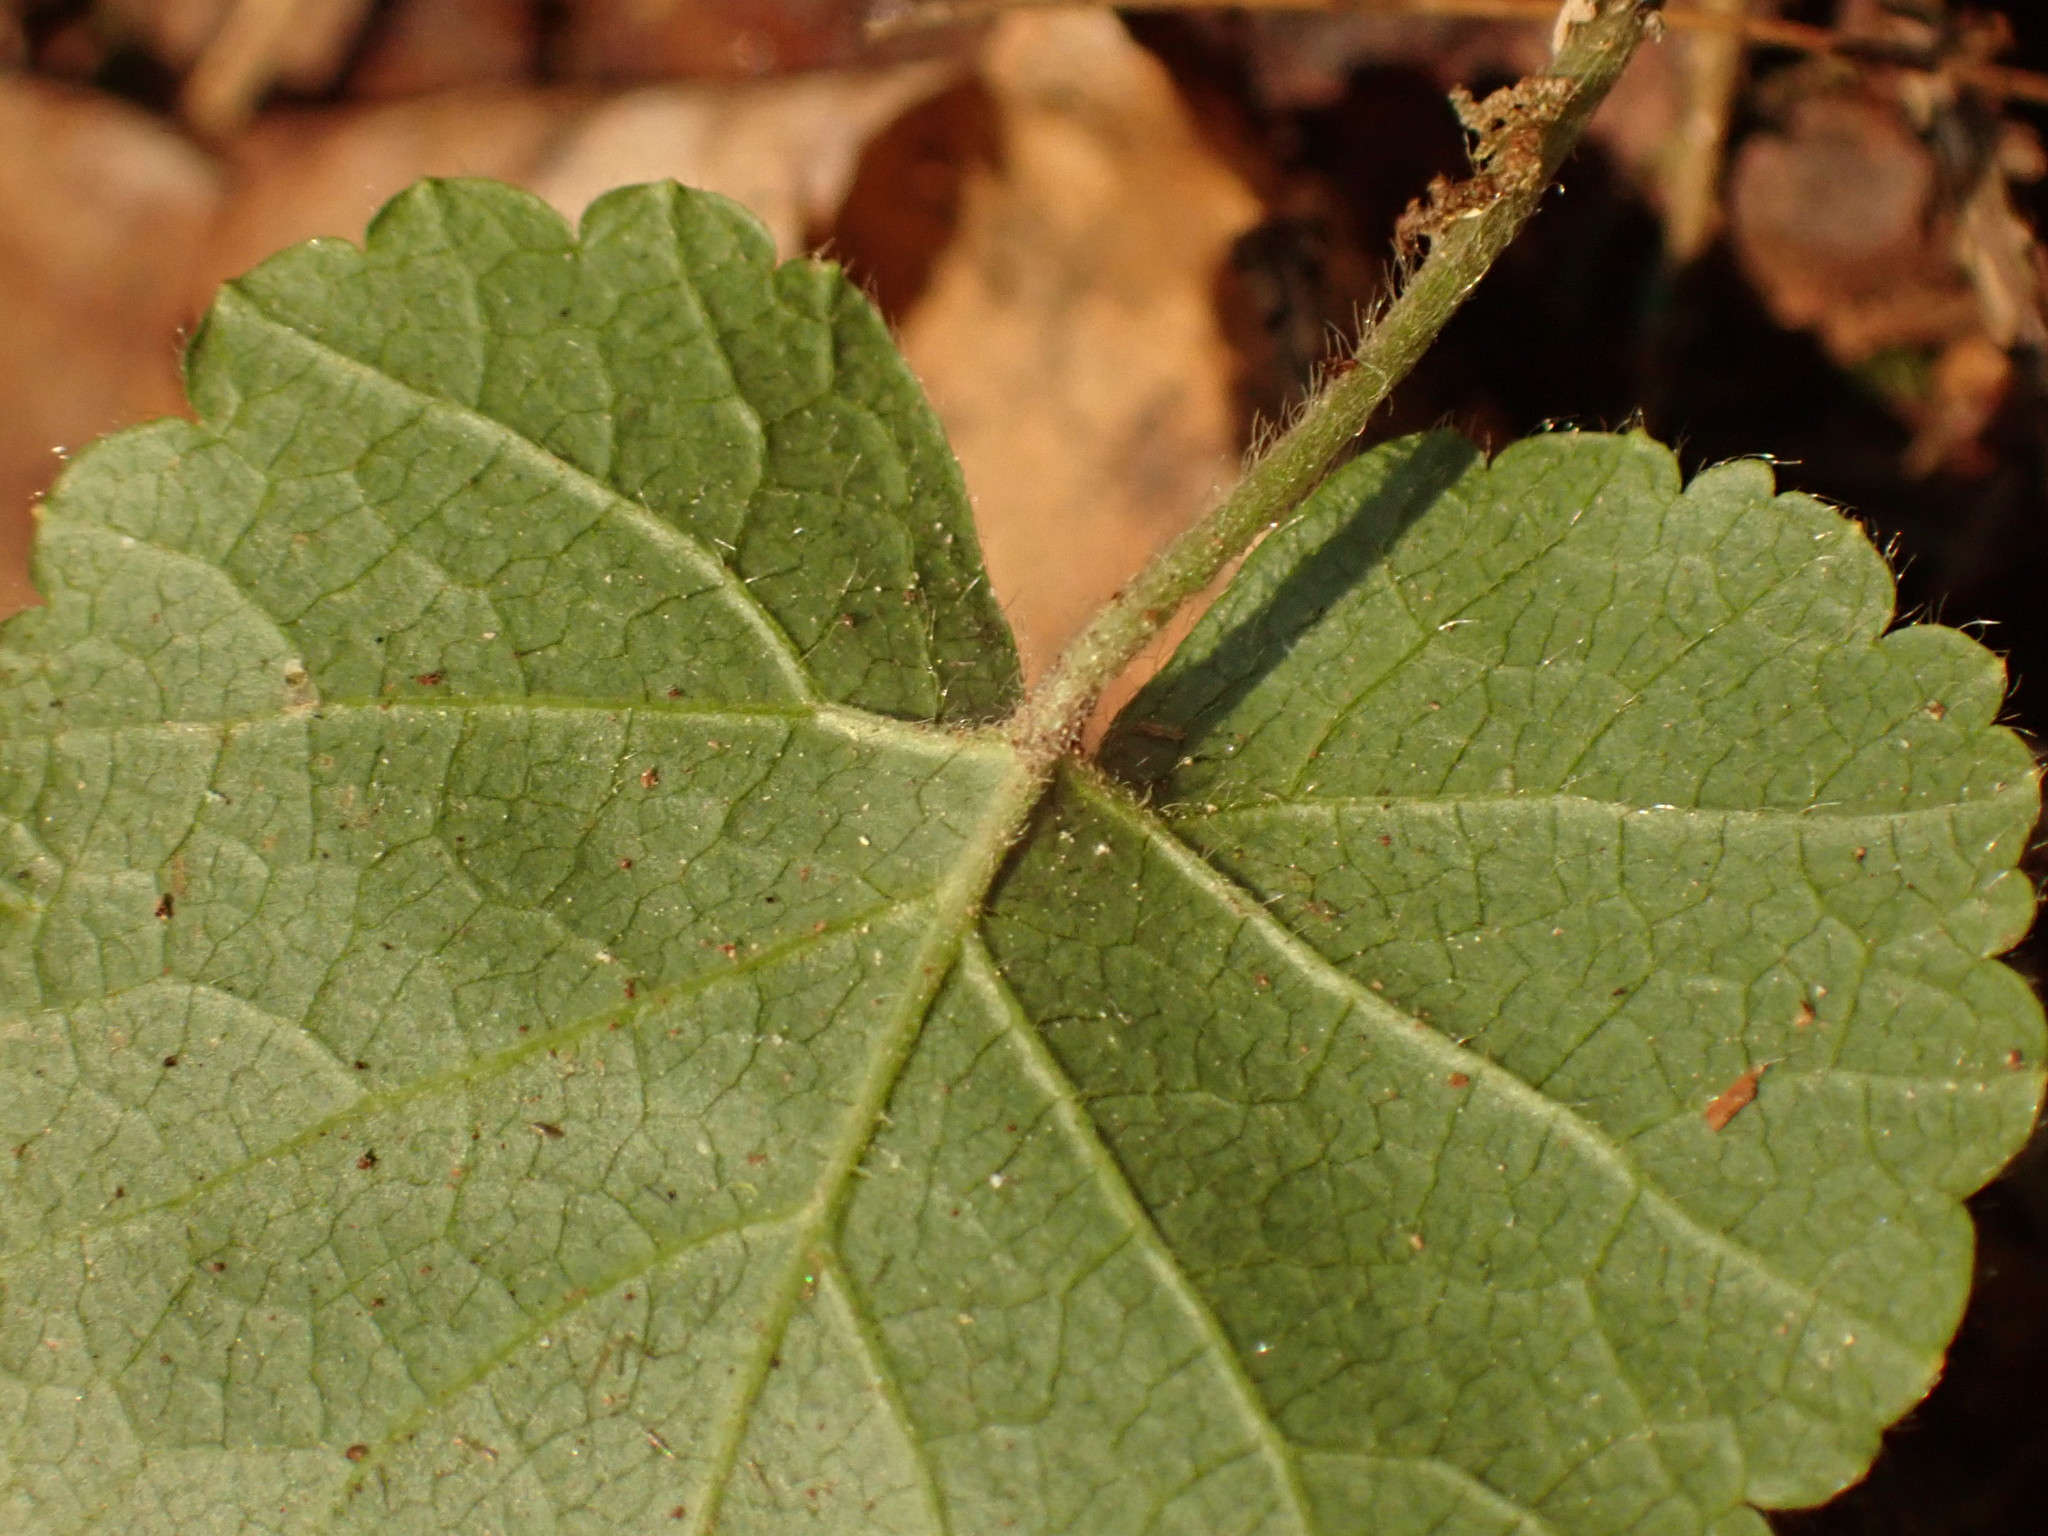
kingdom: Plantae
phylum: Tracheophyta
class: Magnoliopsida
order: Rosales
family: Rosaceae
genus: Dalibarda
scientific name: Dalibarda repens
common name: Dewdrop
